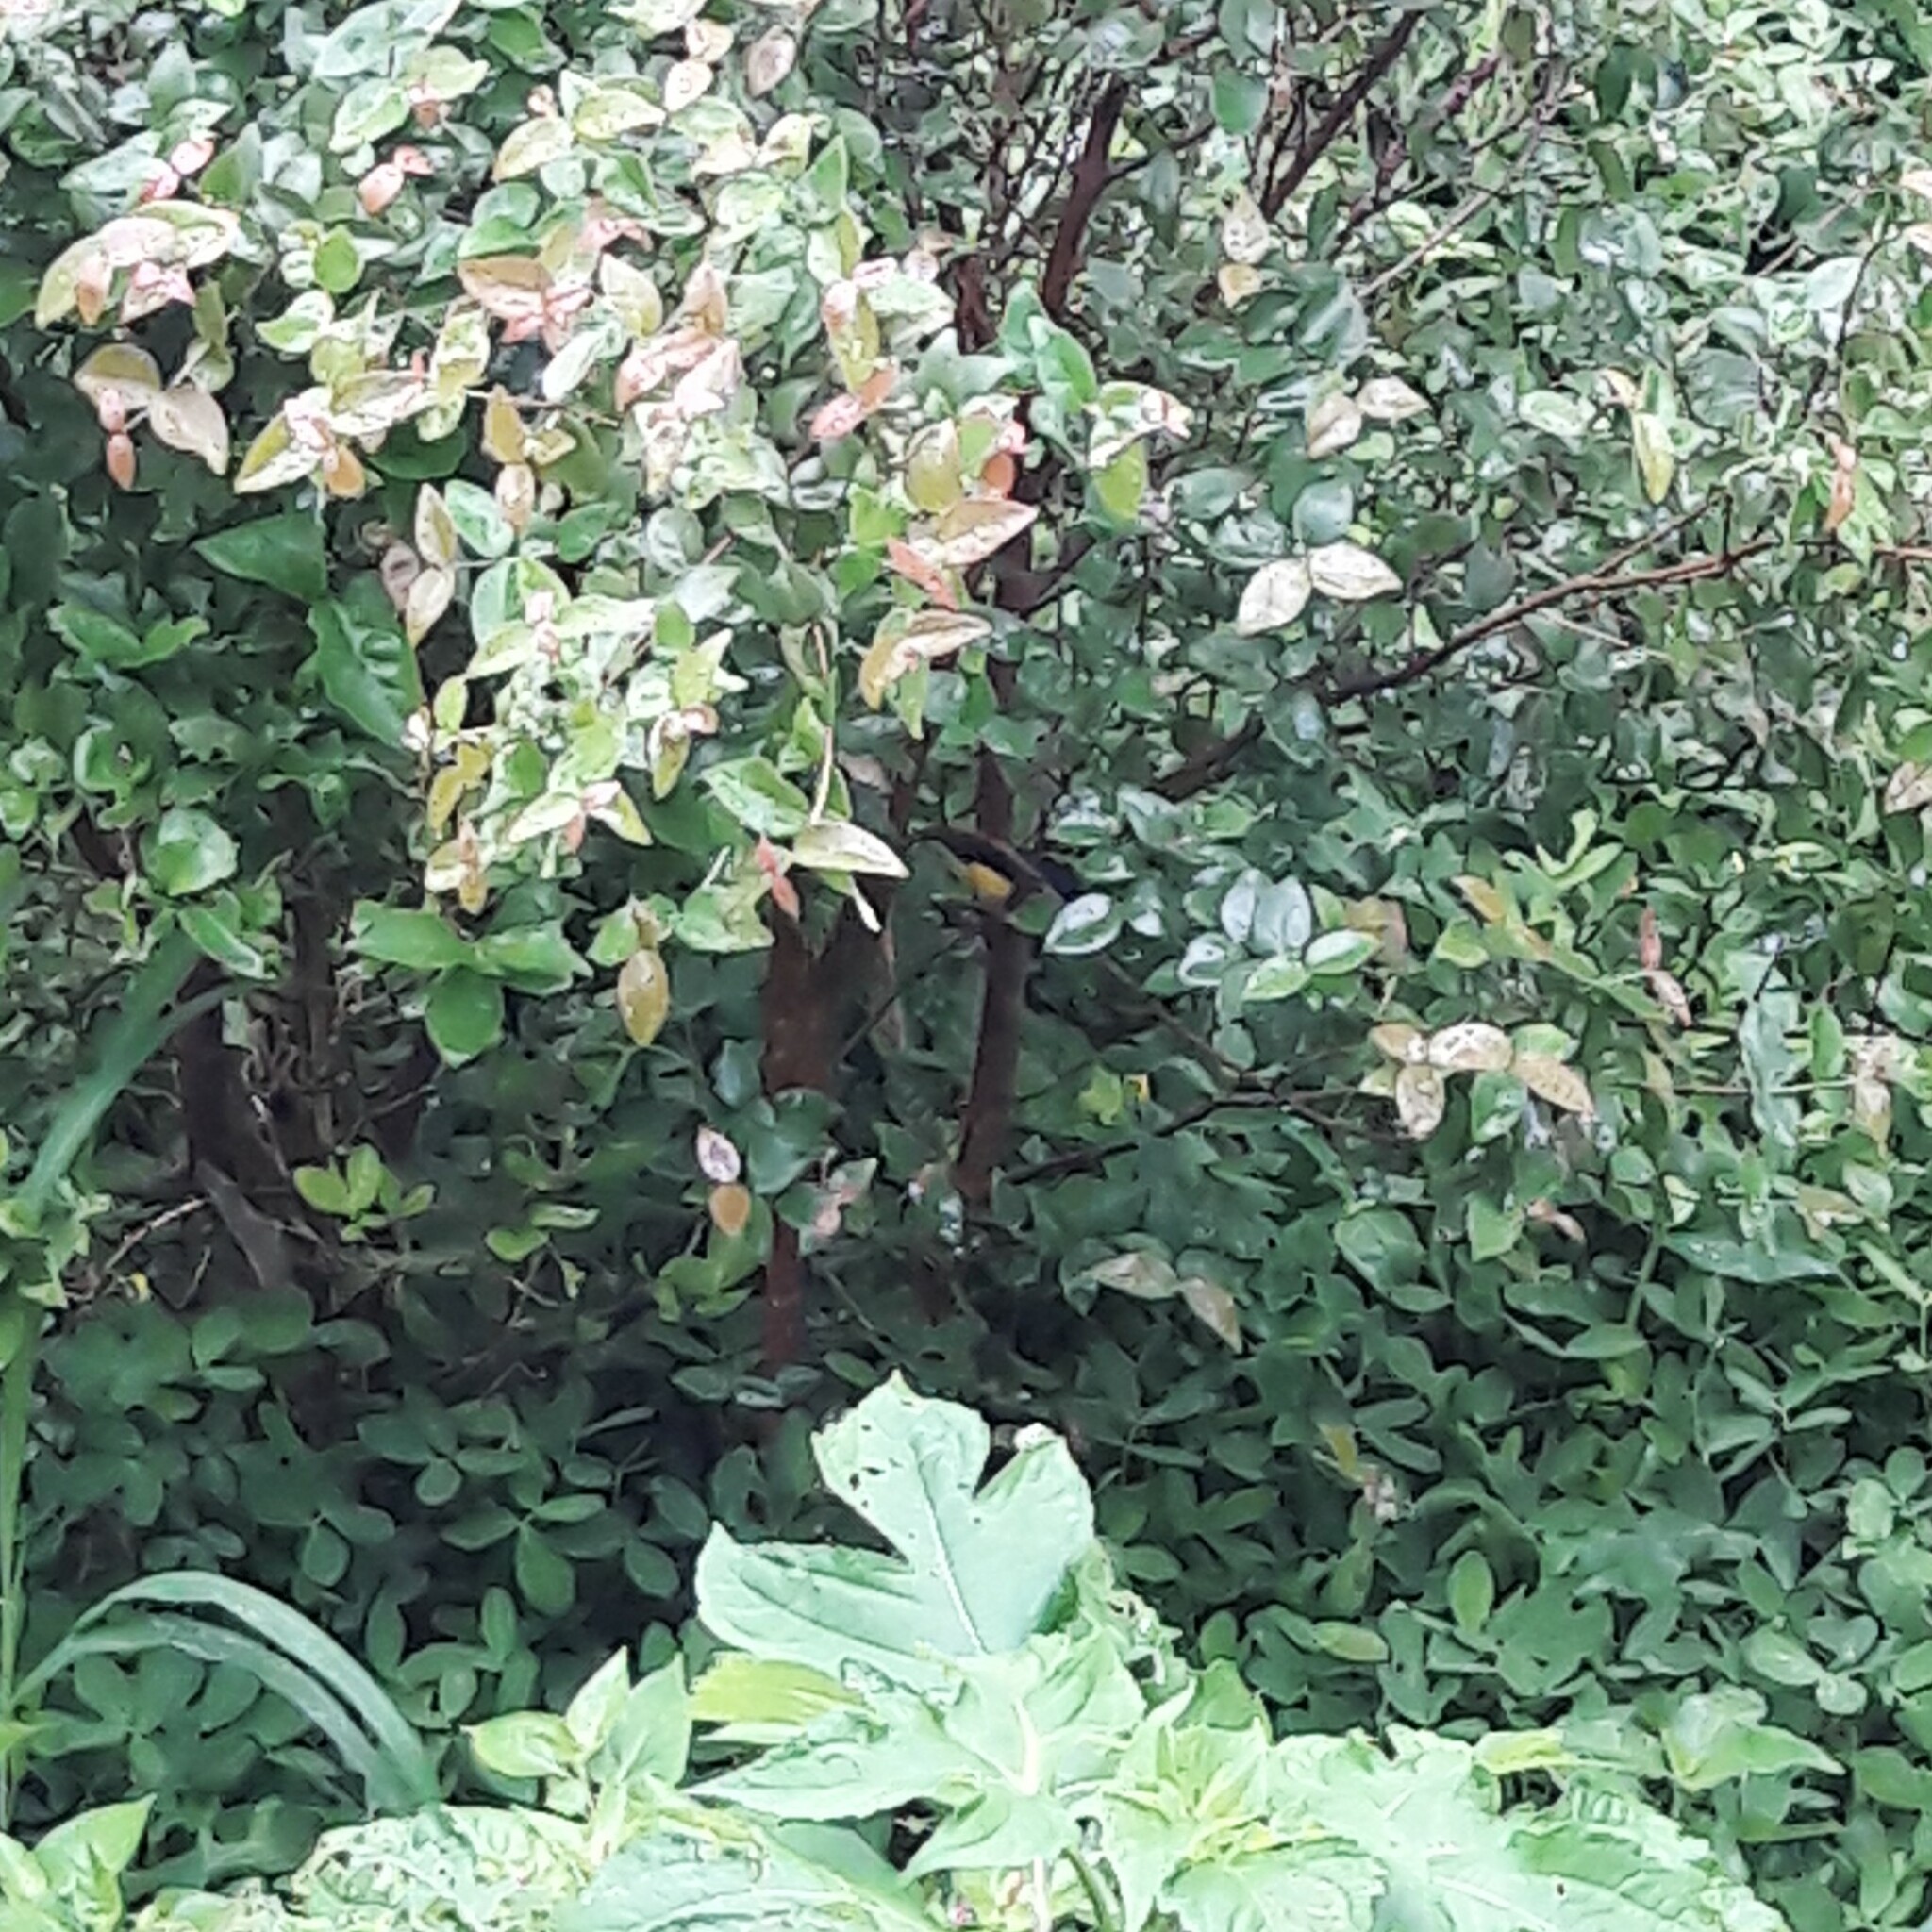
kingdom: Animalia
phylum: Chordata
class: Aves
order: Passeriformes
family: Fringillidae
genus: Euphonia
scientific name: Euphonia violacea
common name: Violaceous euphonia
